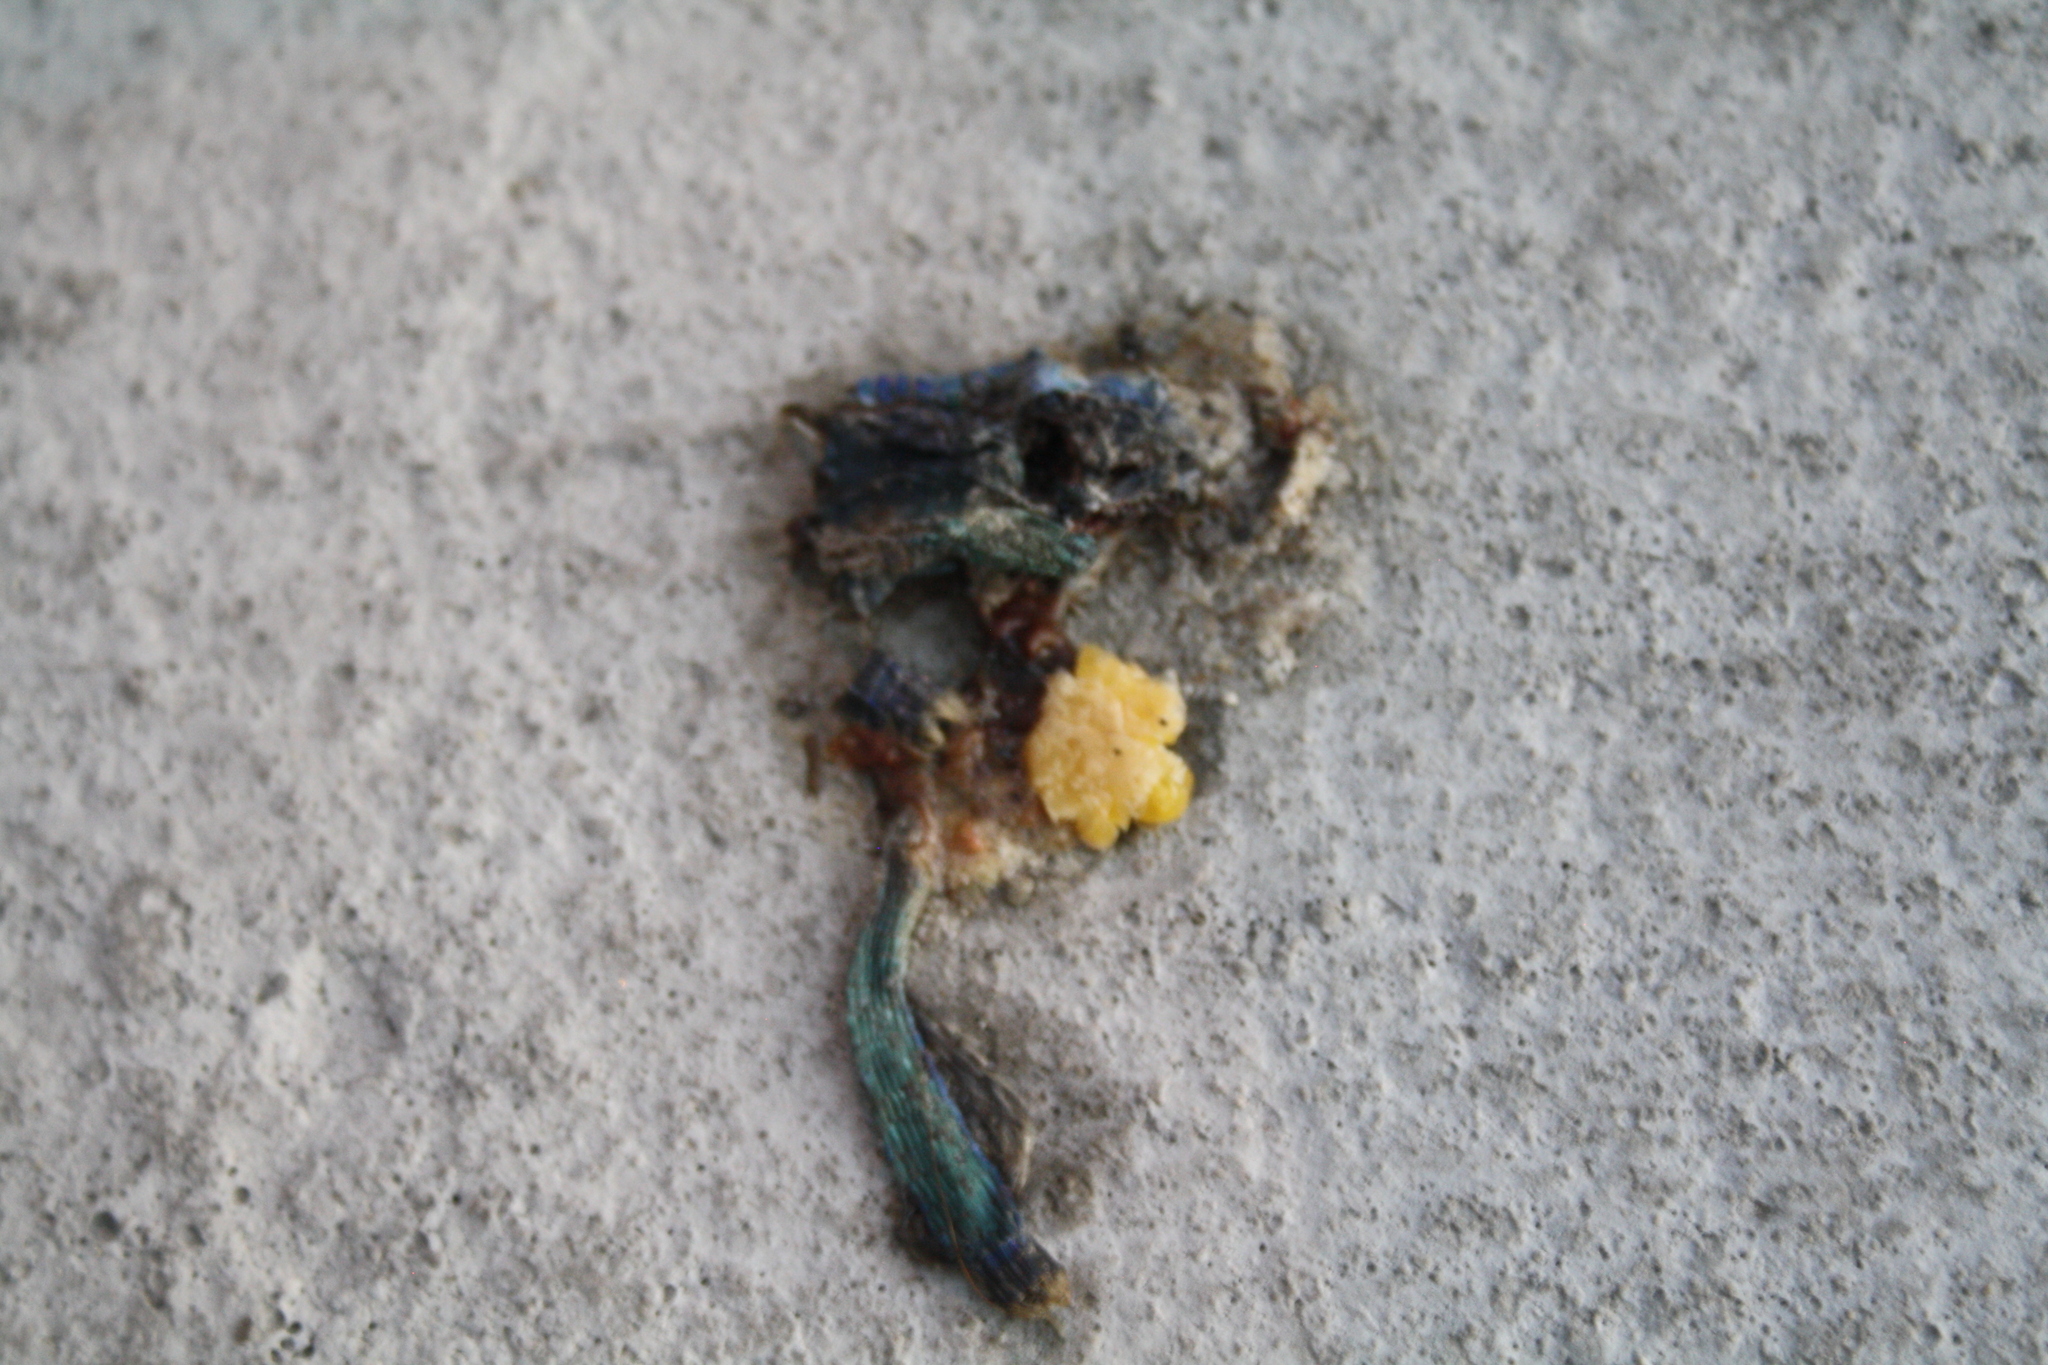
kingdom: Animalia
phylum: Chordata
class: Squamata
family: Lacertidae
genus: Podarcis
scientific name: Podarcis siculus
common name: Italian wall lizard
